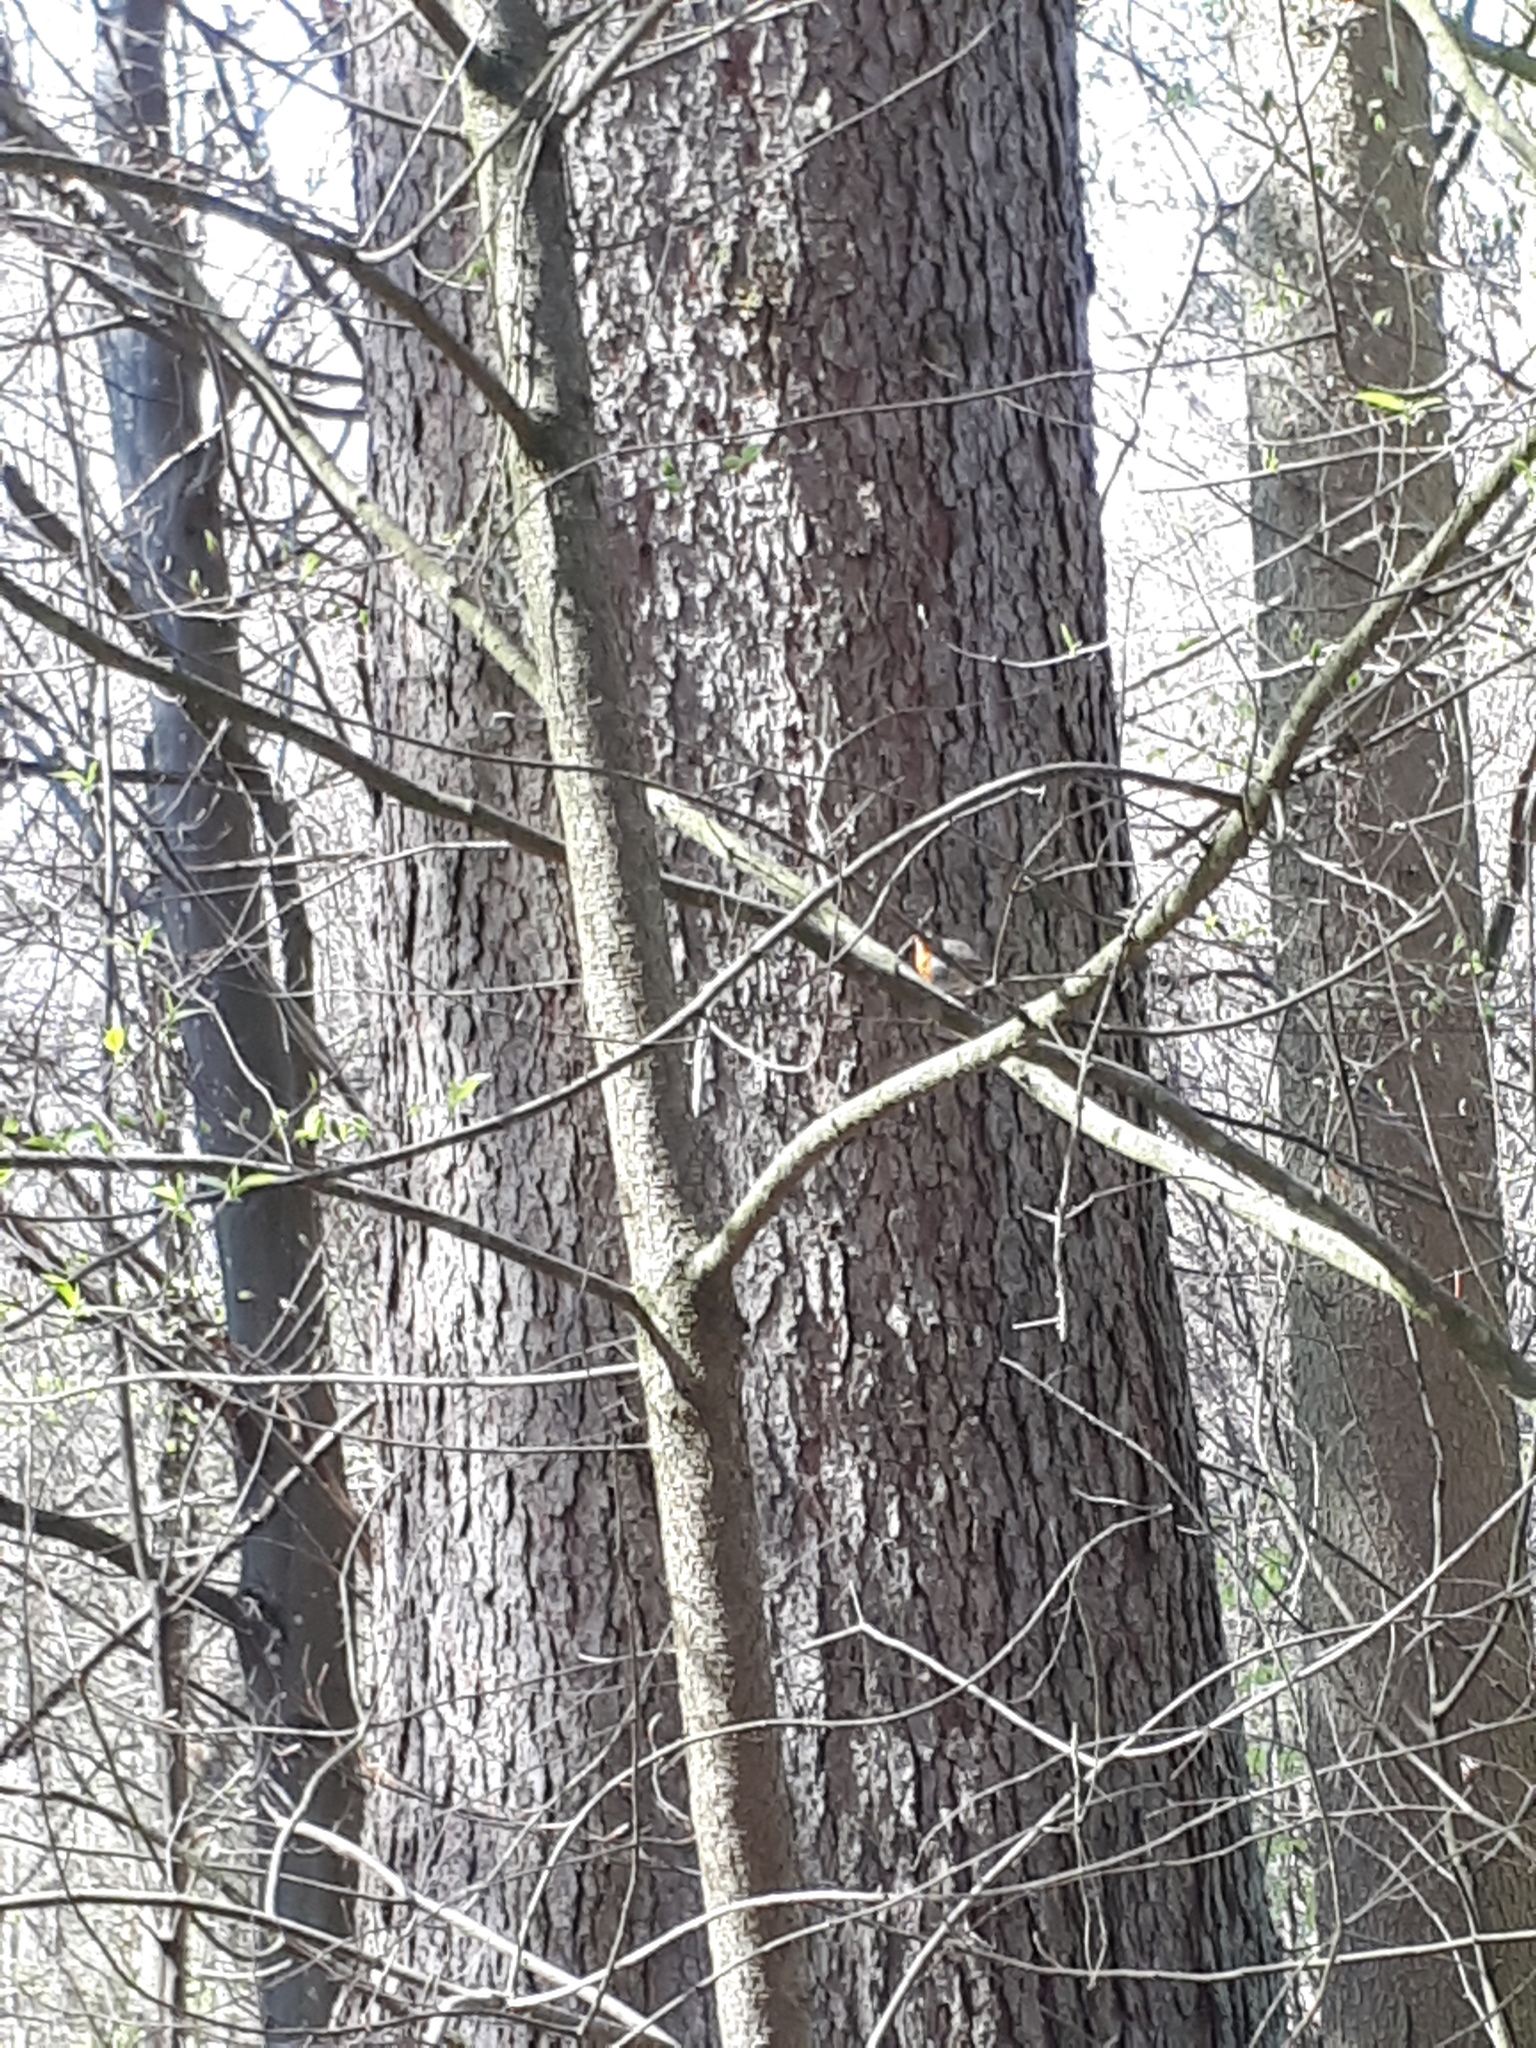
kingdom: Animalia
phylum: Chordata
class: Aves
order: Passeriformes
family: Muscicapidae
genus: Erithacus
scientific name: Erithacus rubecula
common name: European robin
